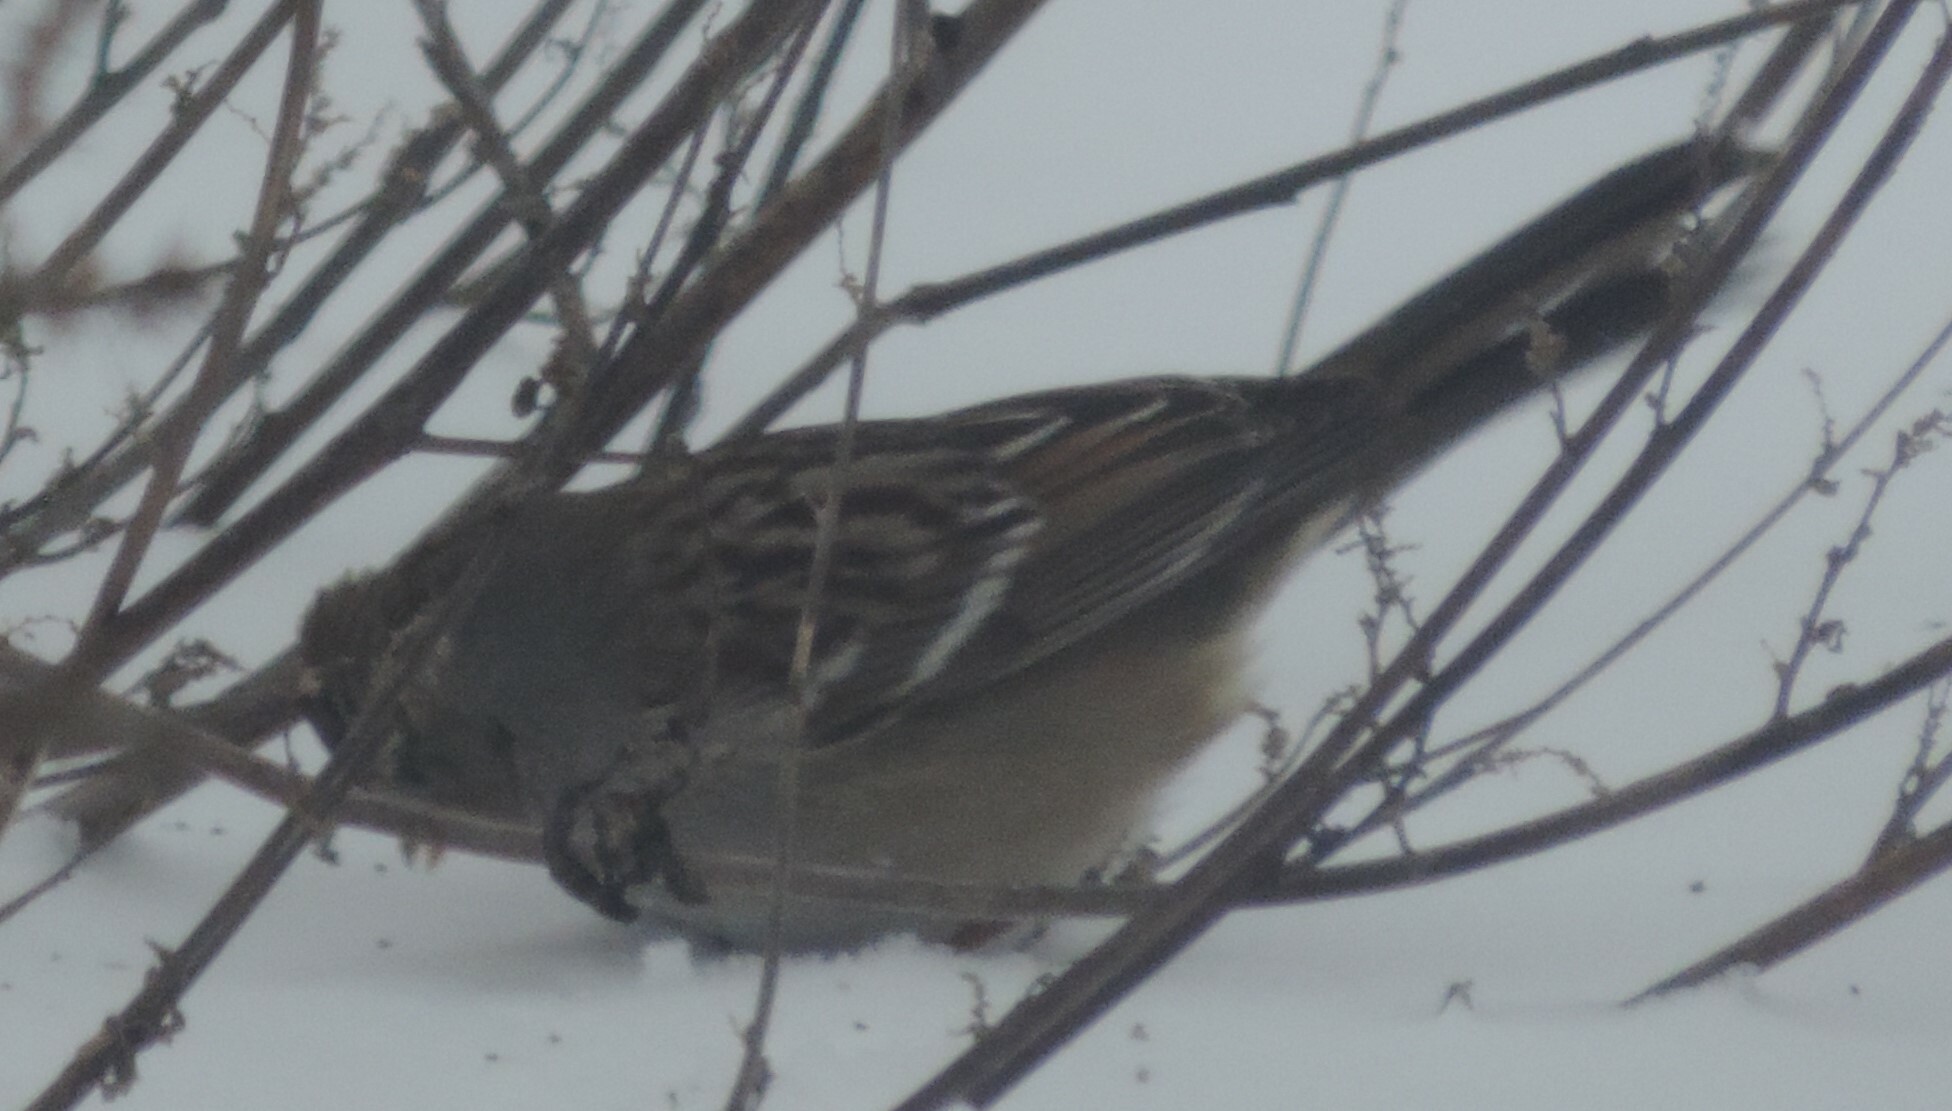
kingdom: Animalia
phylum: Chordata
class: Aves
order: Passeriformes
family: Passerellidae
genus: Zonotrichia
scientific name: Zonotrichia leucophrys
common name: White-crowned sparrow
